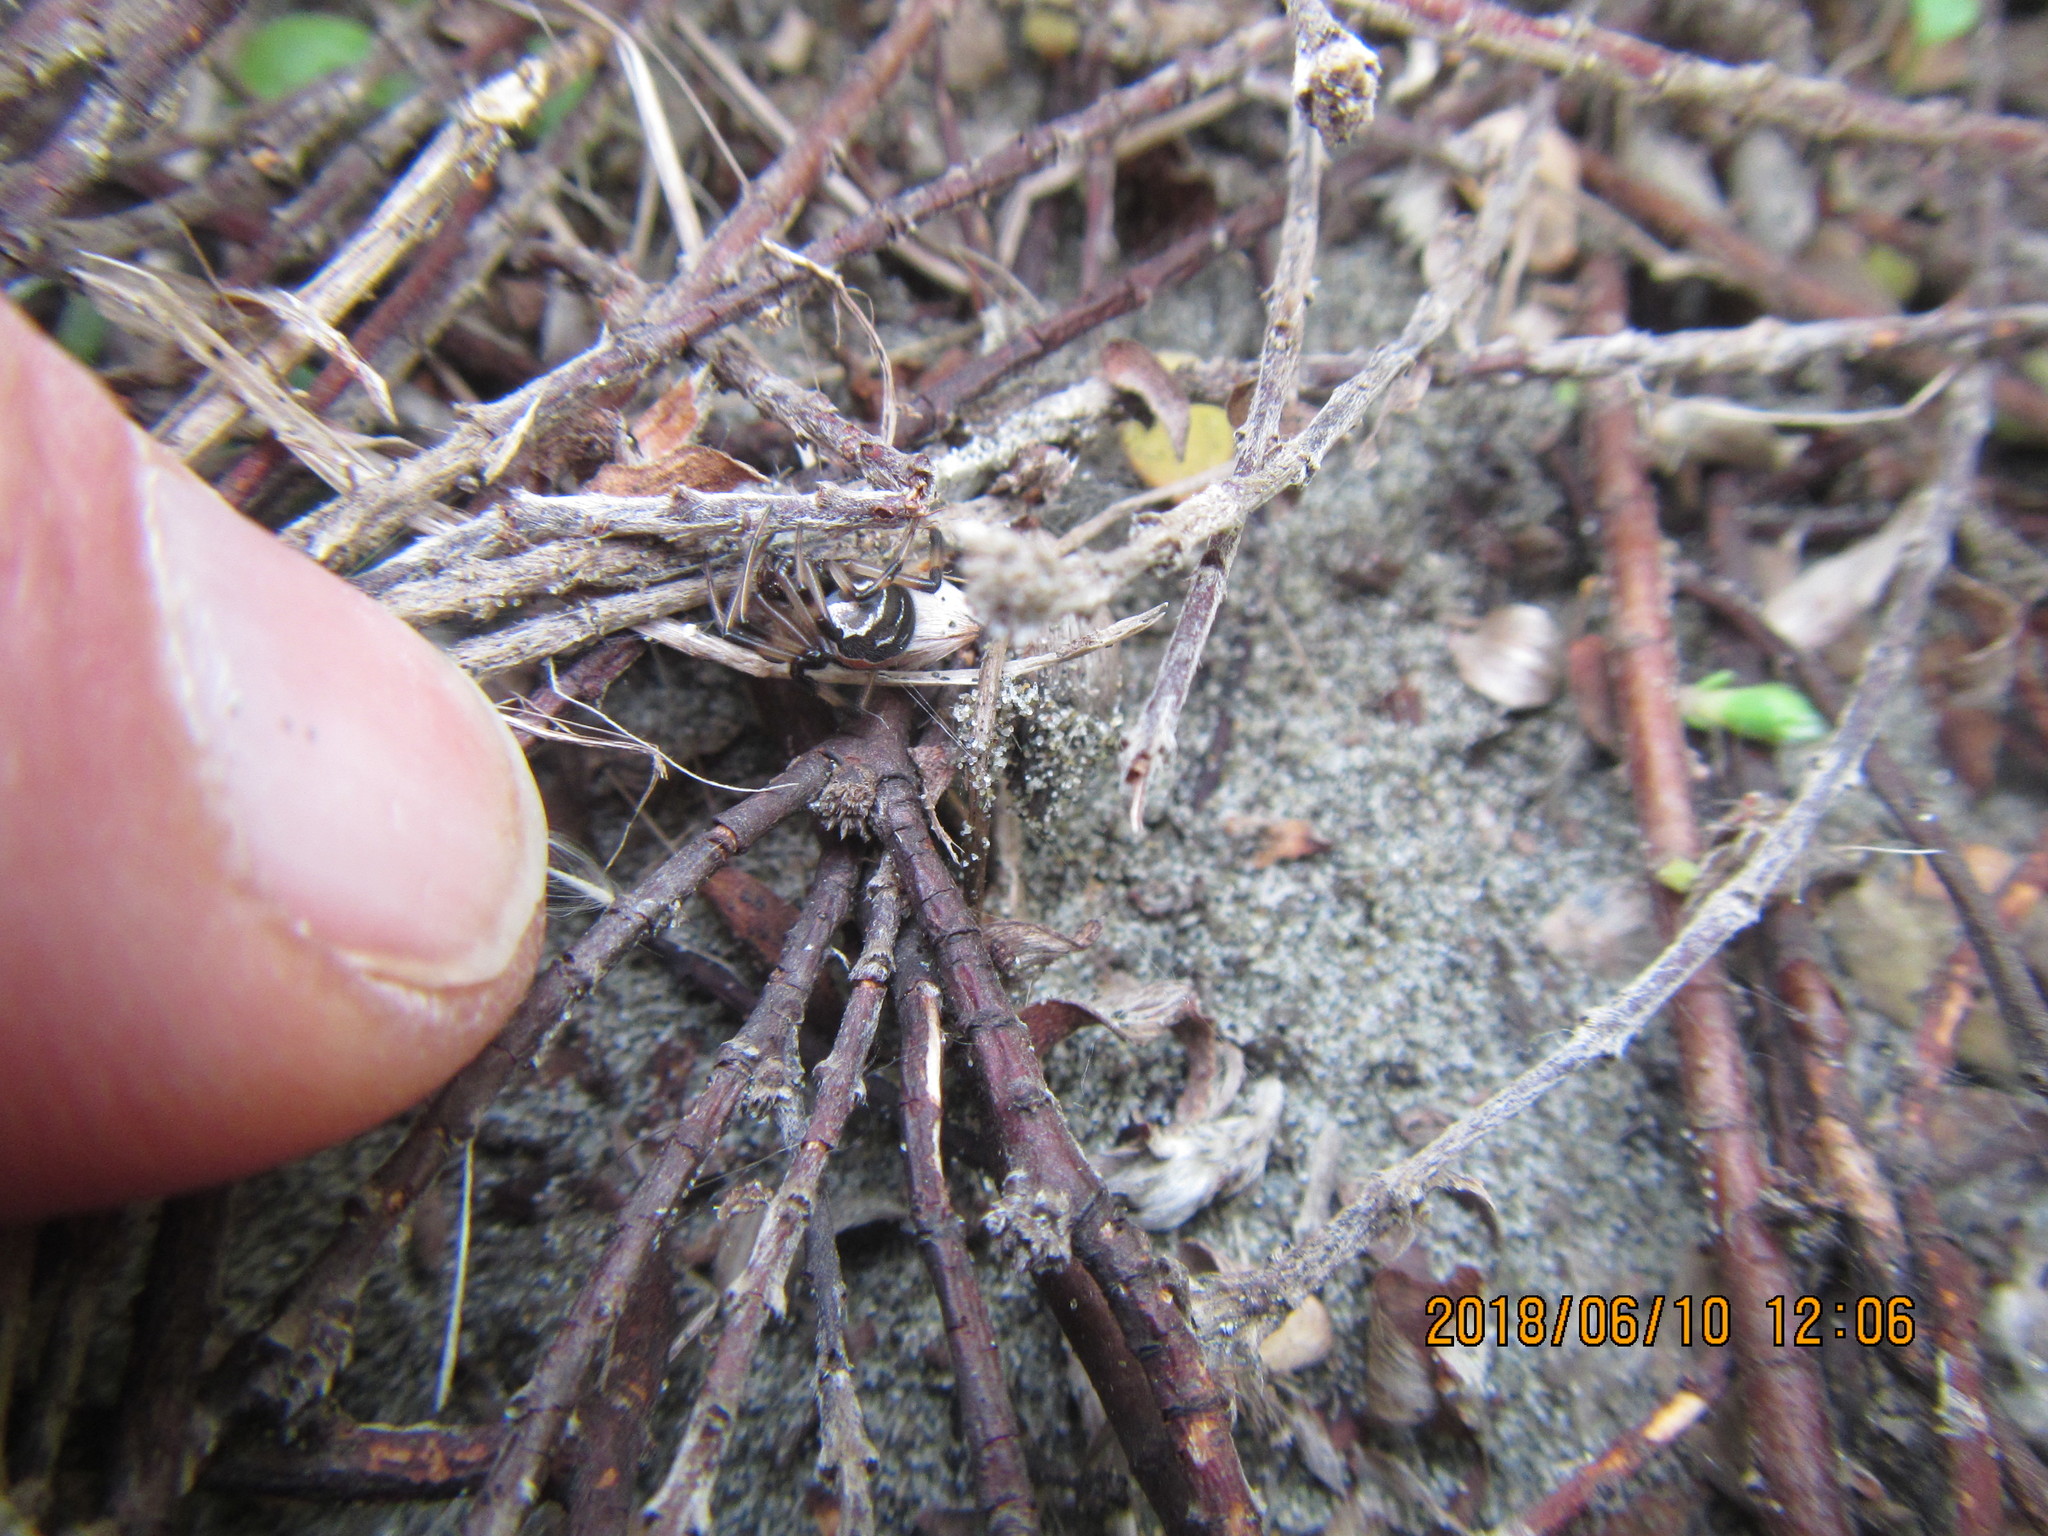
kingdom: Animalia
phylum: Arthropoda
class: Arachnida
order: Araneae
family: Theridiidae
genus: Latrodectus
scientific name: Latrodectus katipo
